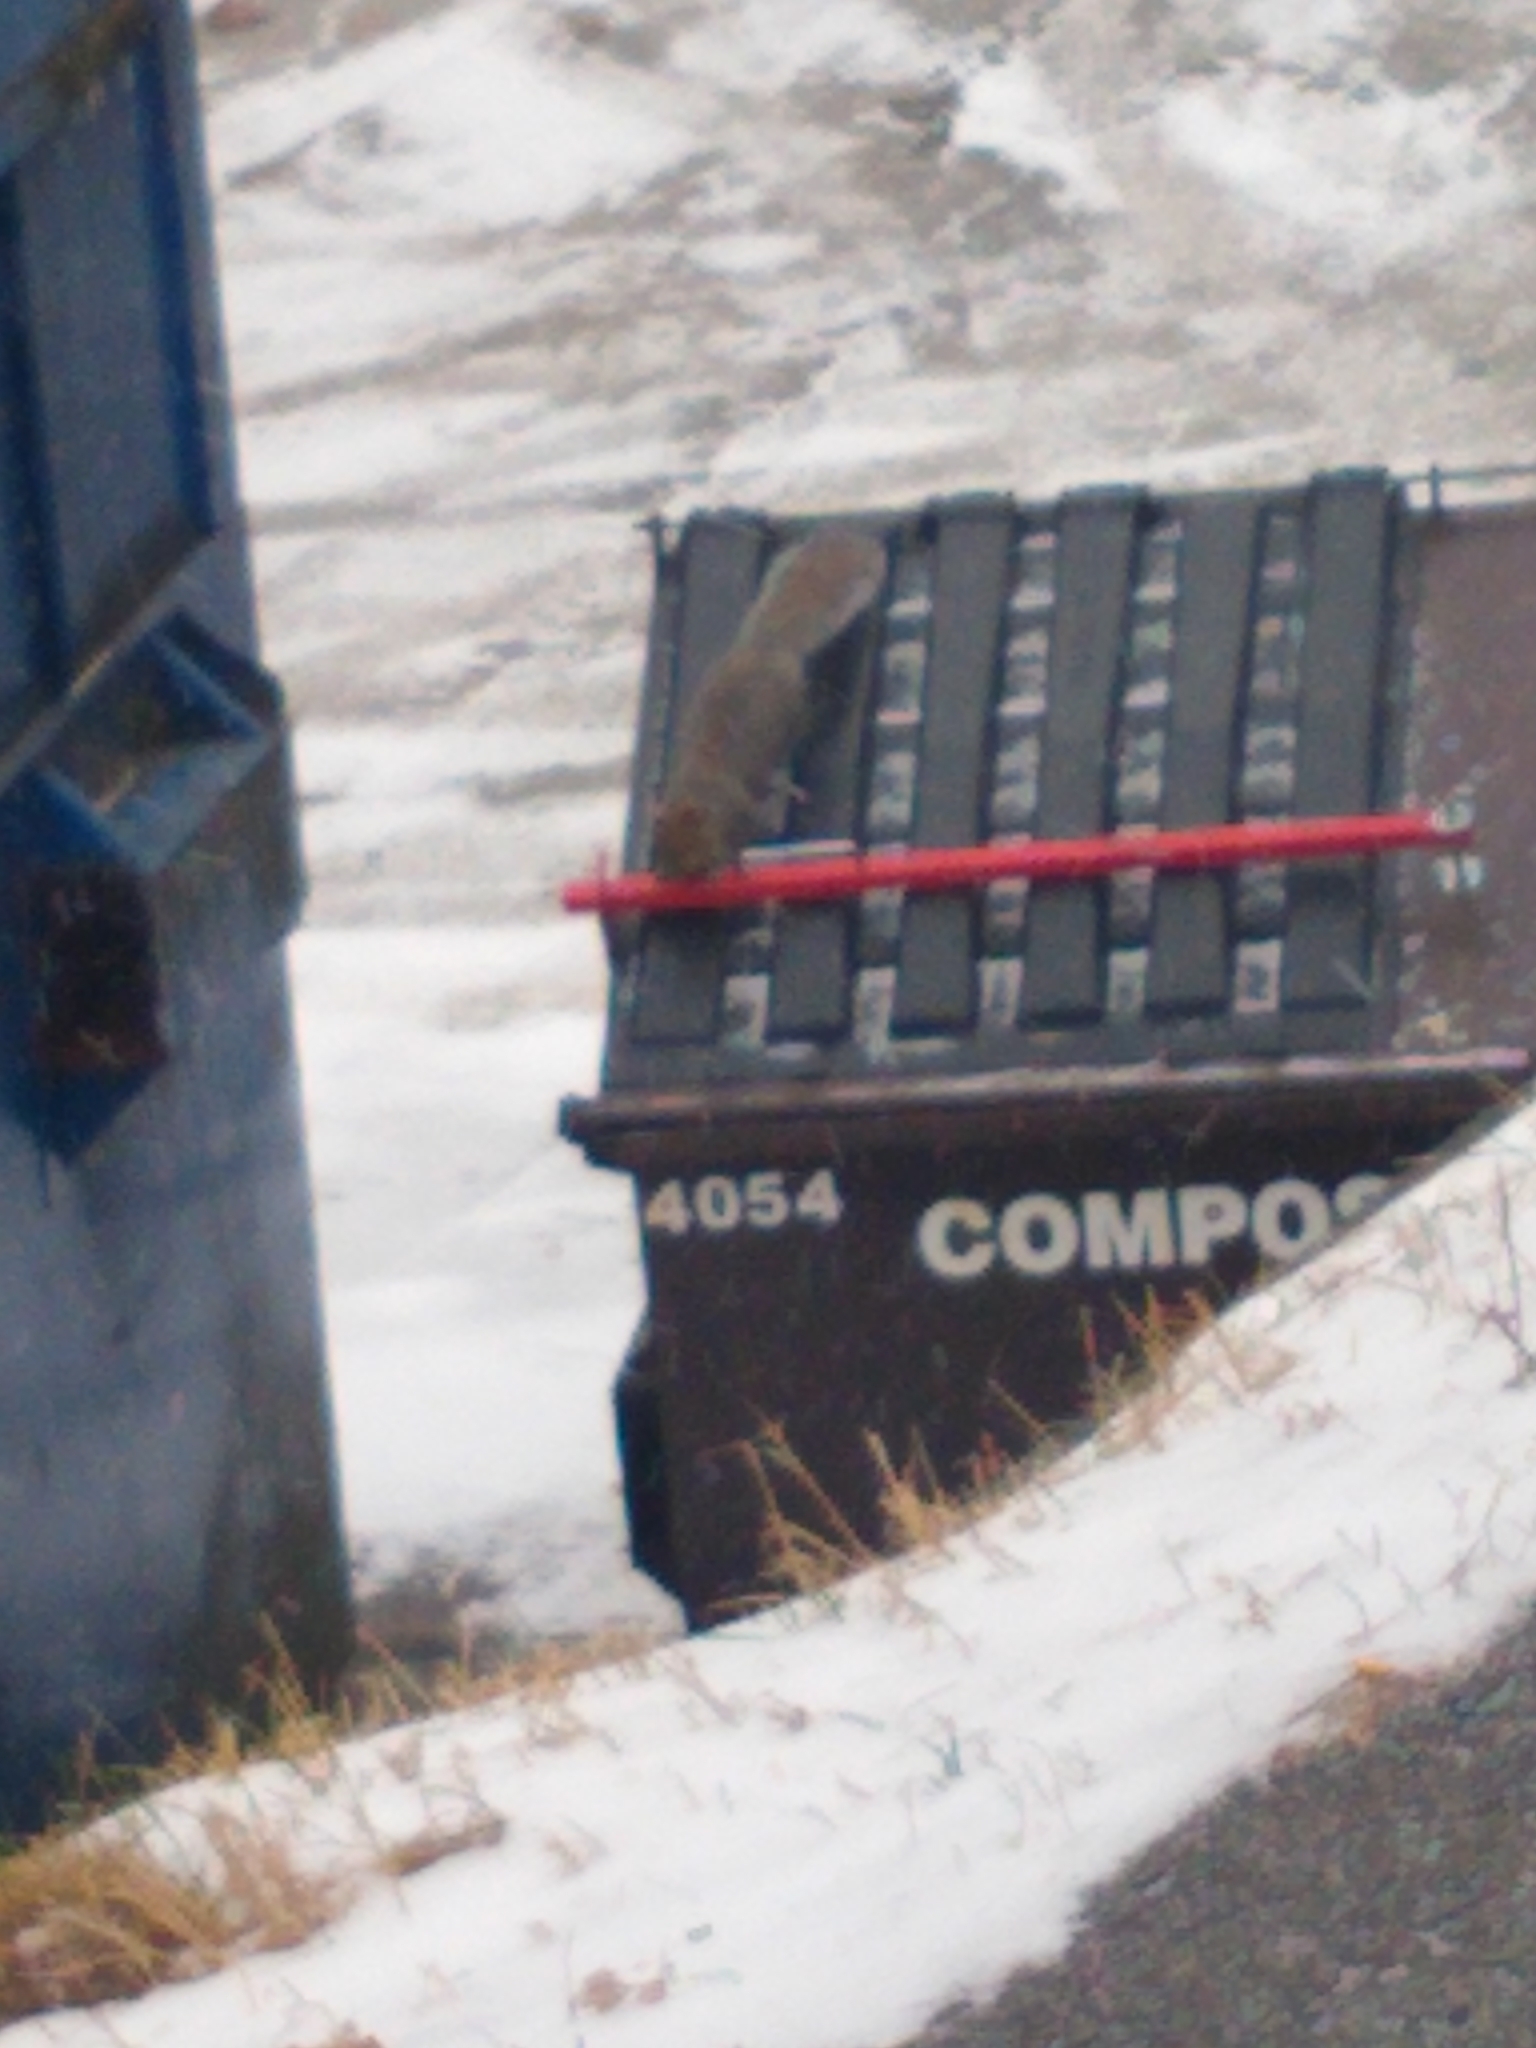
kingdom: Animalia
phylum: Chordata
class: Mammalia
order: Rodentia
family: Sciuridae
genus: Sciurus
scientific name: Sciurus carolinensis
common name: Eastern gray squirrel
